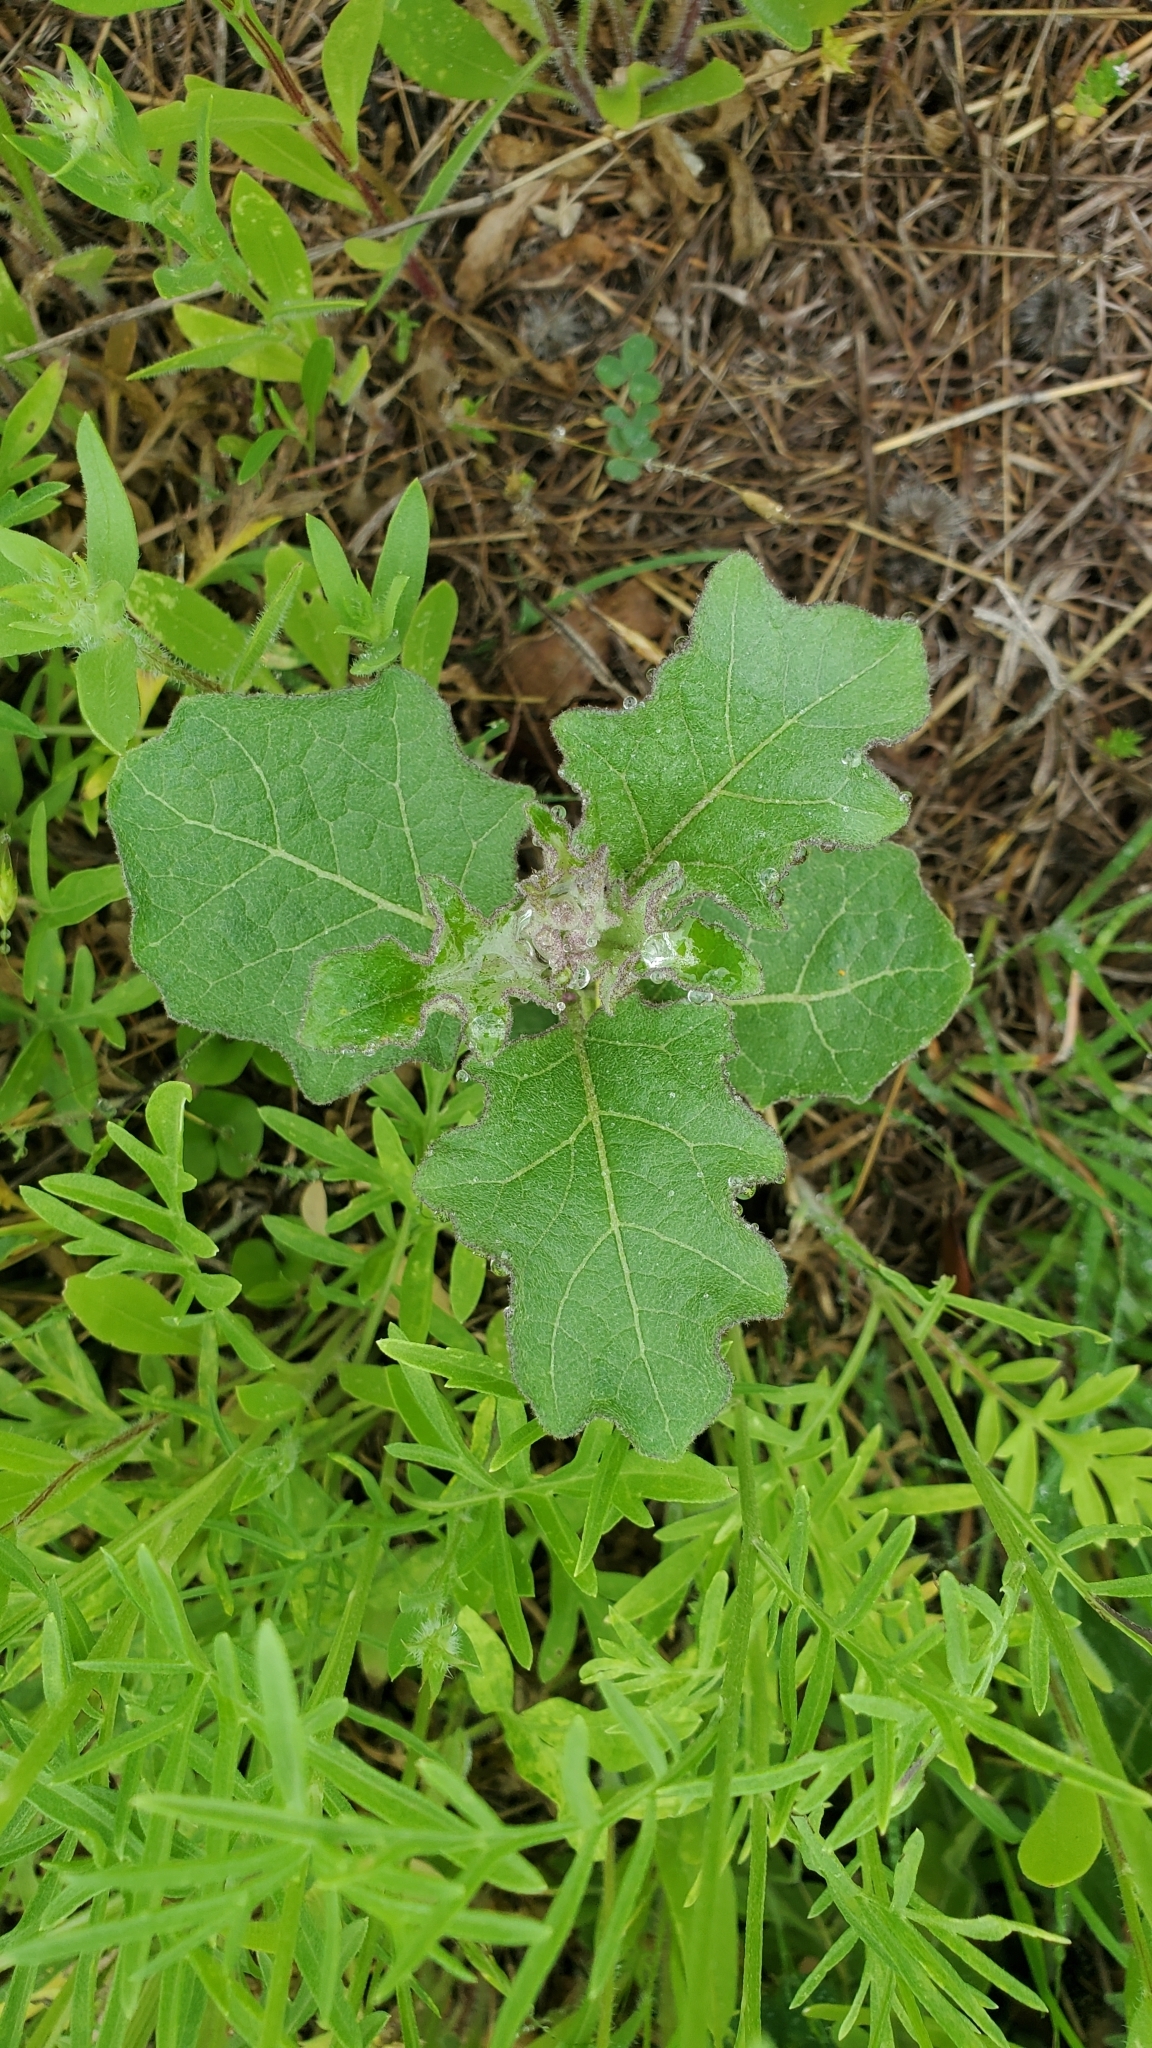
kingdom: Plantae
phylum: Tracheophyta
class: Magnoliopsida
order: Solanales
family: Solanaceae
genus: Solanum
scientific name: Solanum dimidiatum
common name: Carolina horse-nettle
